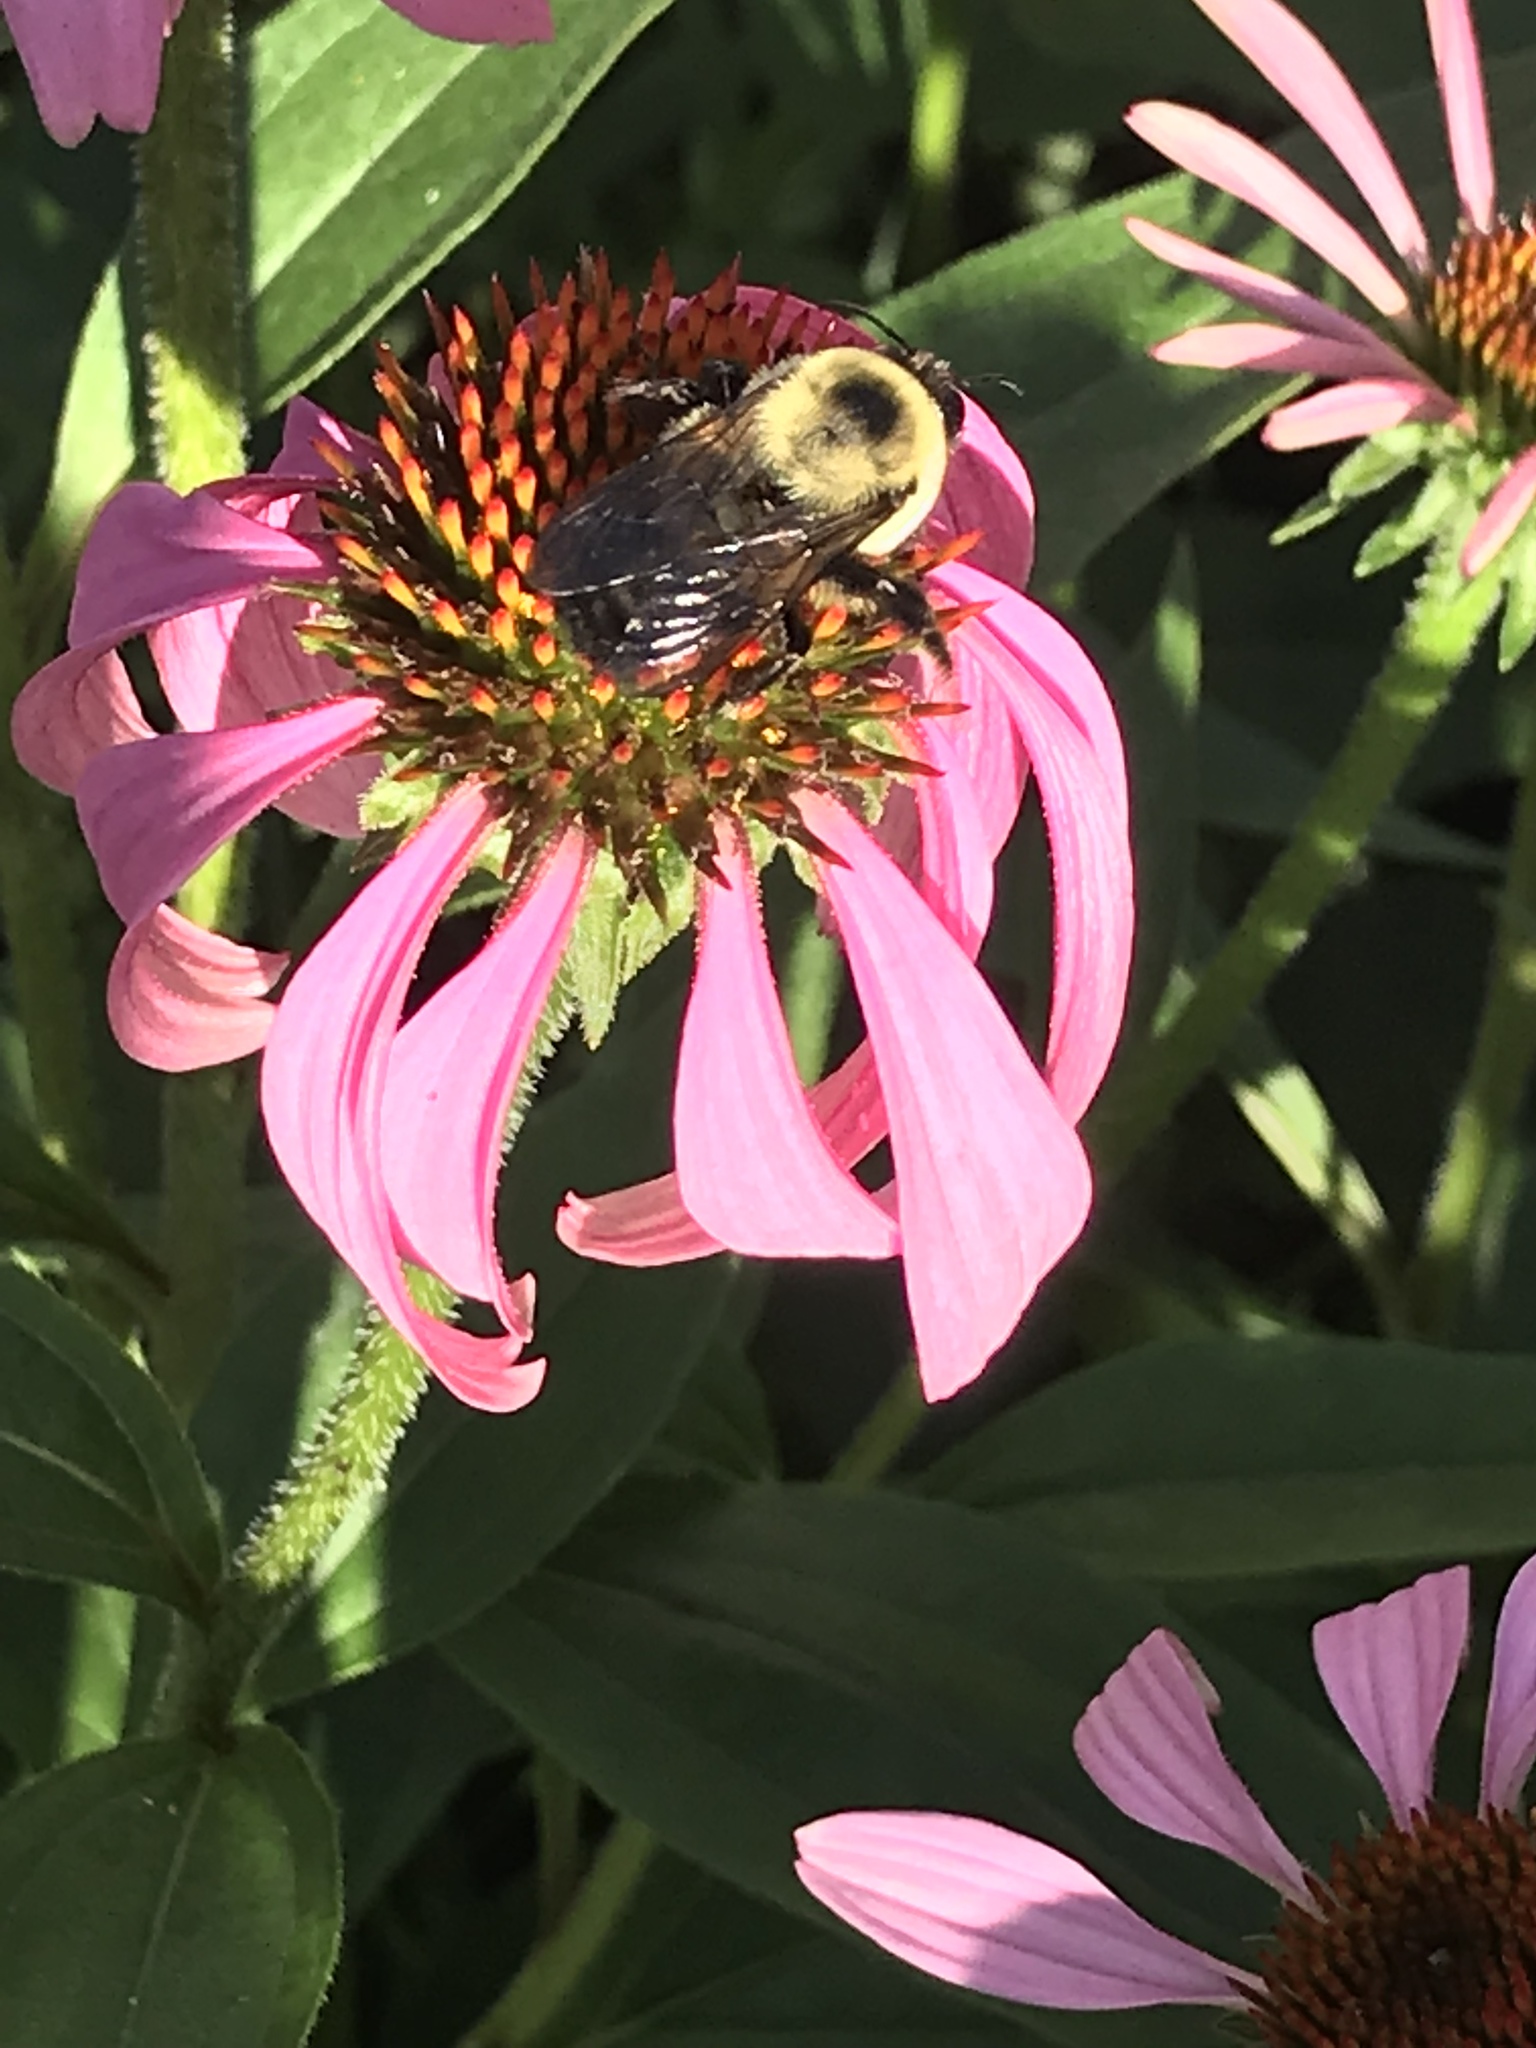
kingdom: Animalia
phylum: Arthropoda
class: Insecta
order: Hymenoptera
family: Apidae
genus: Bombus
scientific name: Bombus griseocollis
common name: Brown-belted bumble bee
